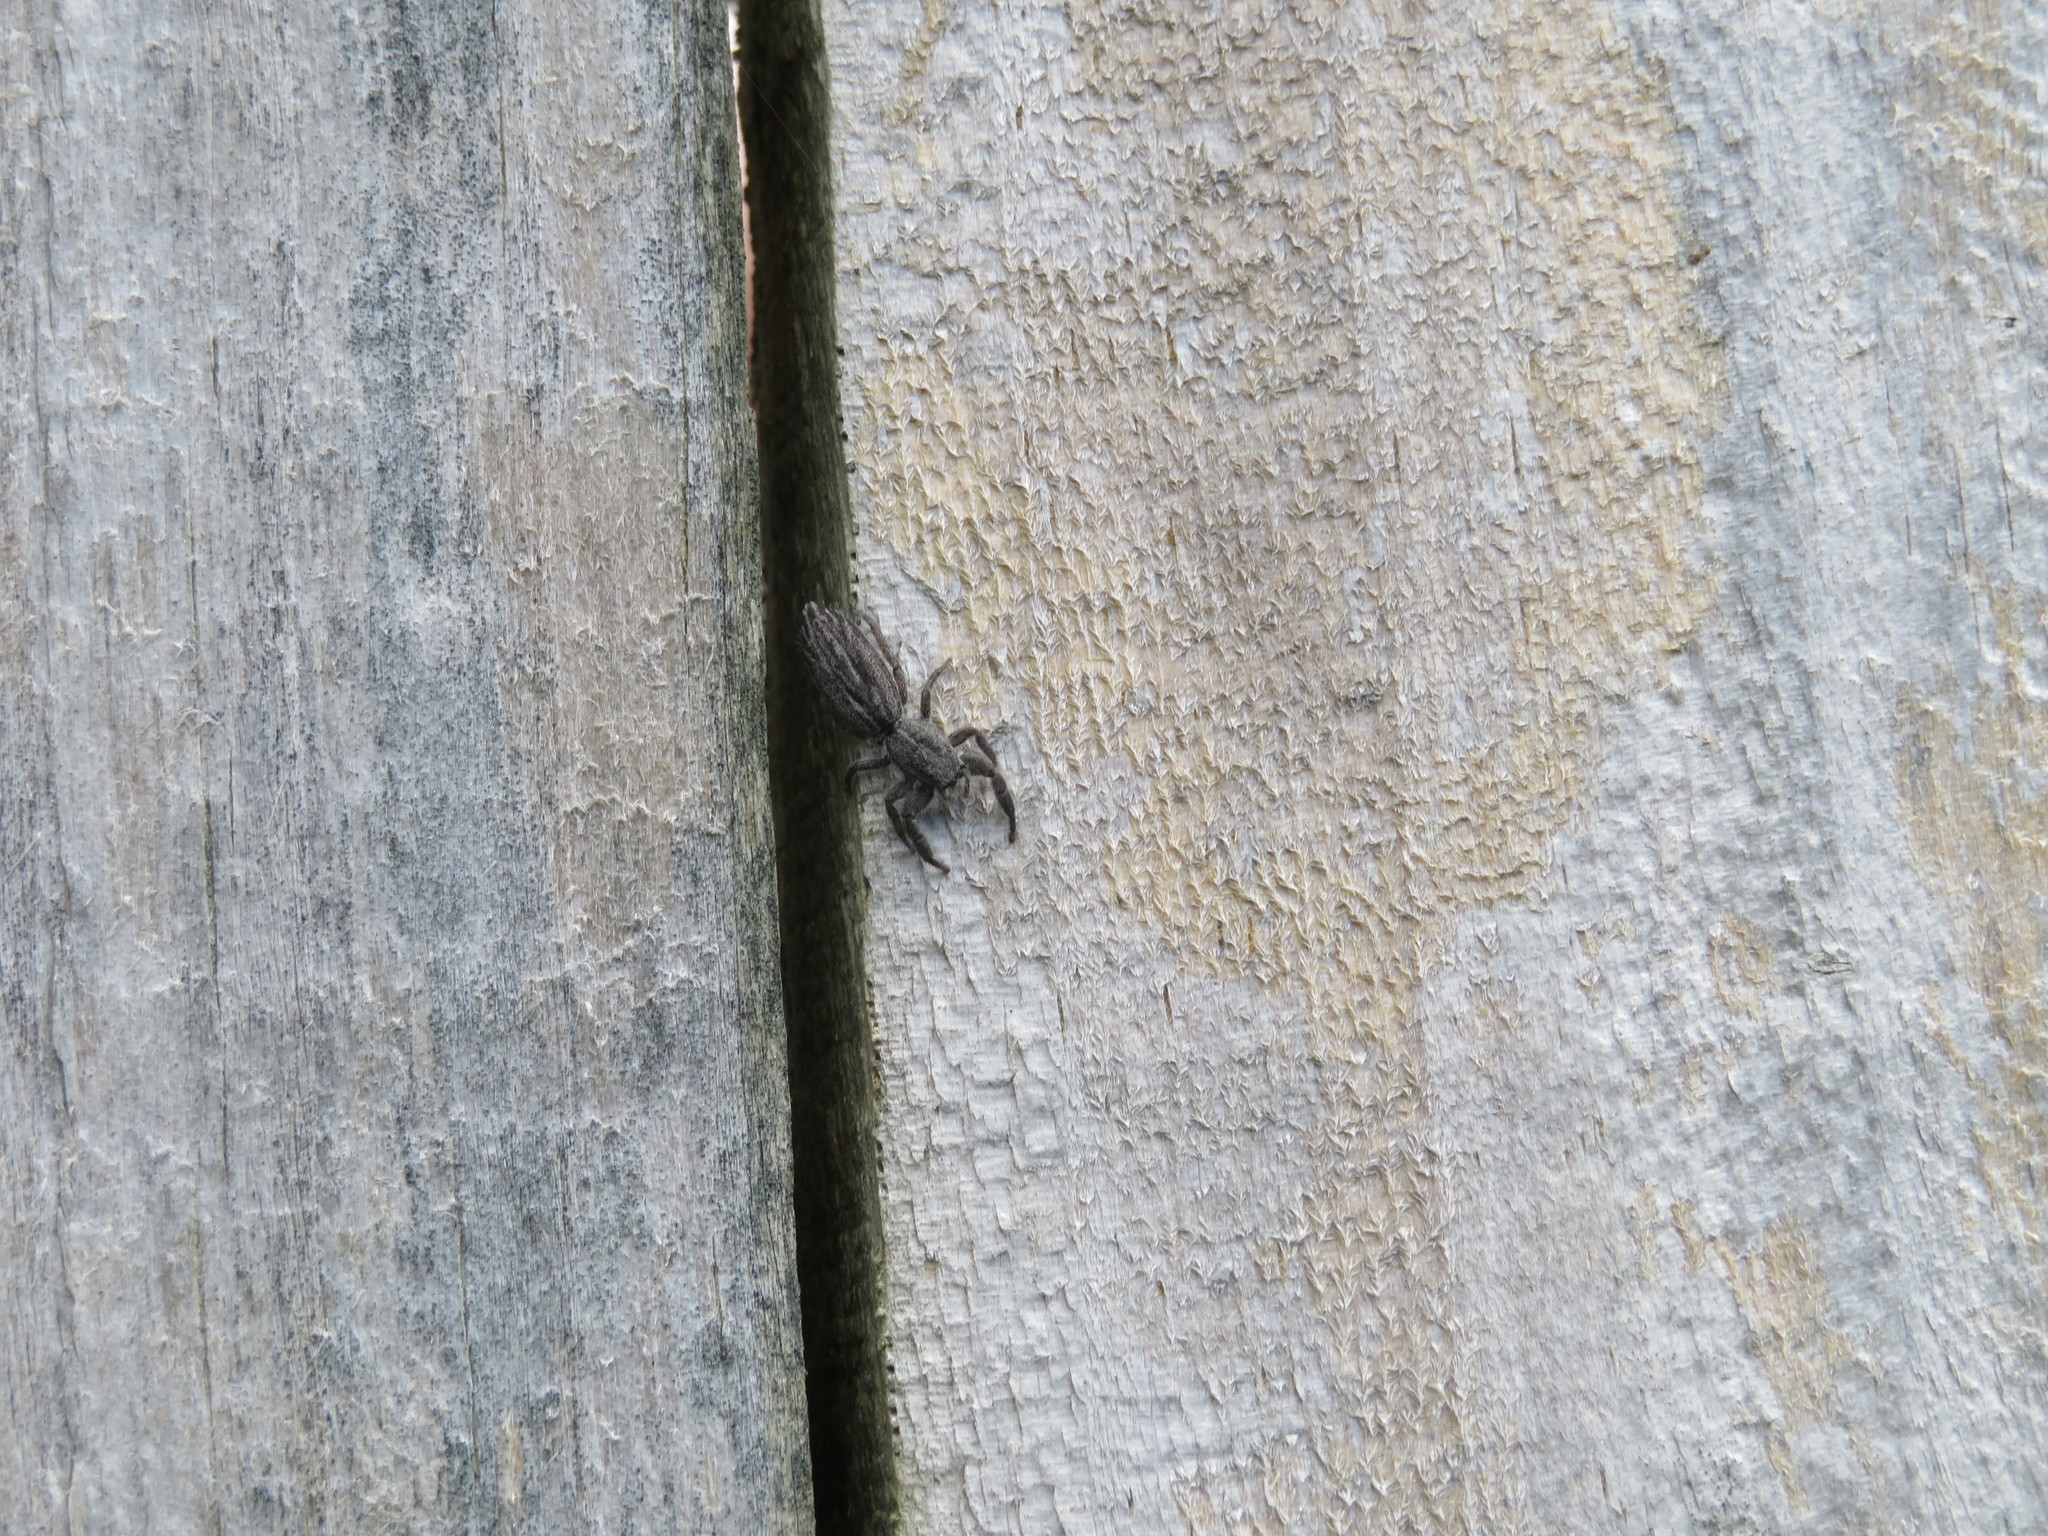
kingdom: Animalia
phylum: Arthropoda
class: Arachnida
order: Araneae
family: Salticidae
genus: Holoplatys
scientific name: Holoplatys apressus
